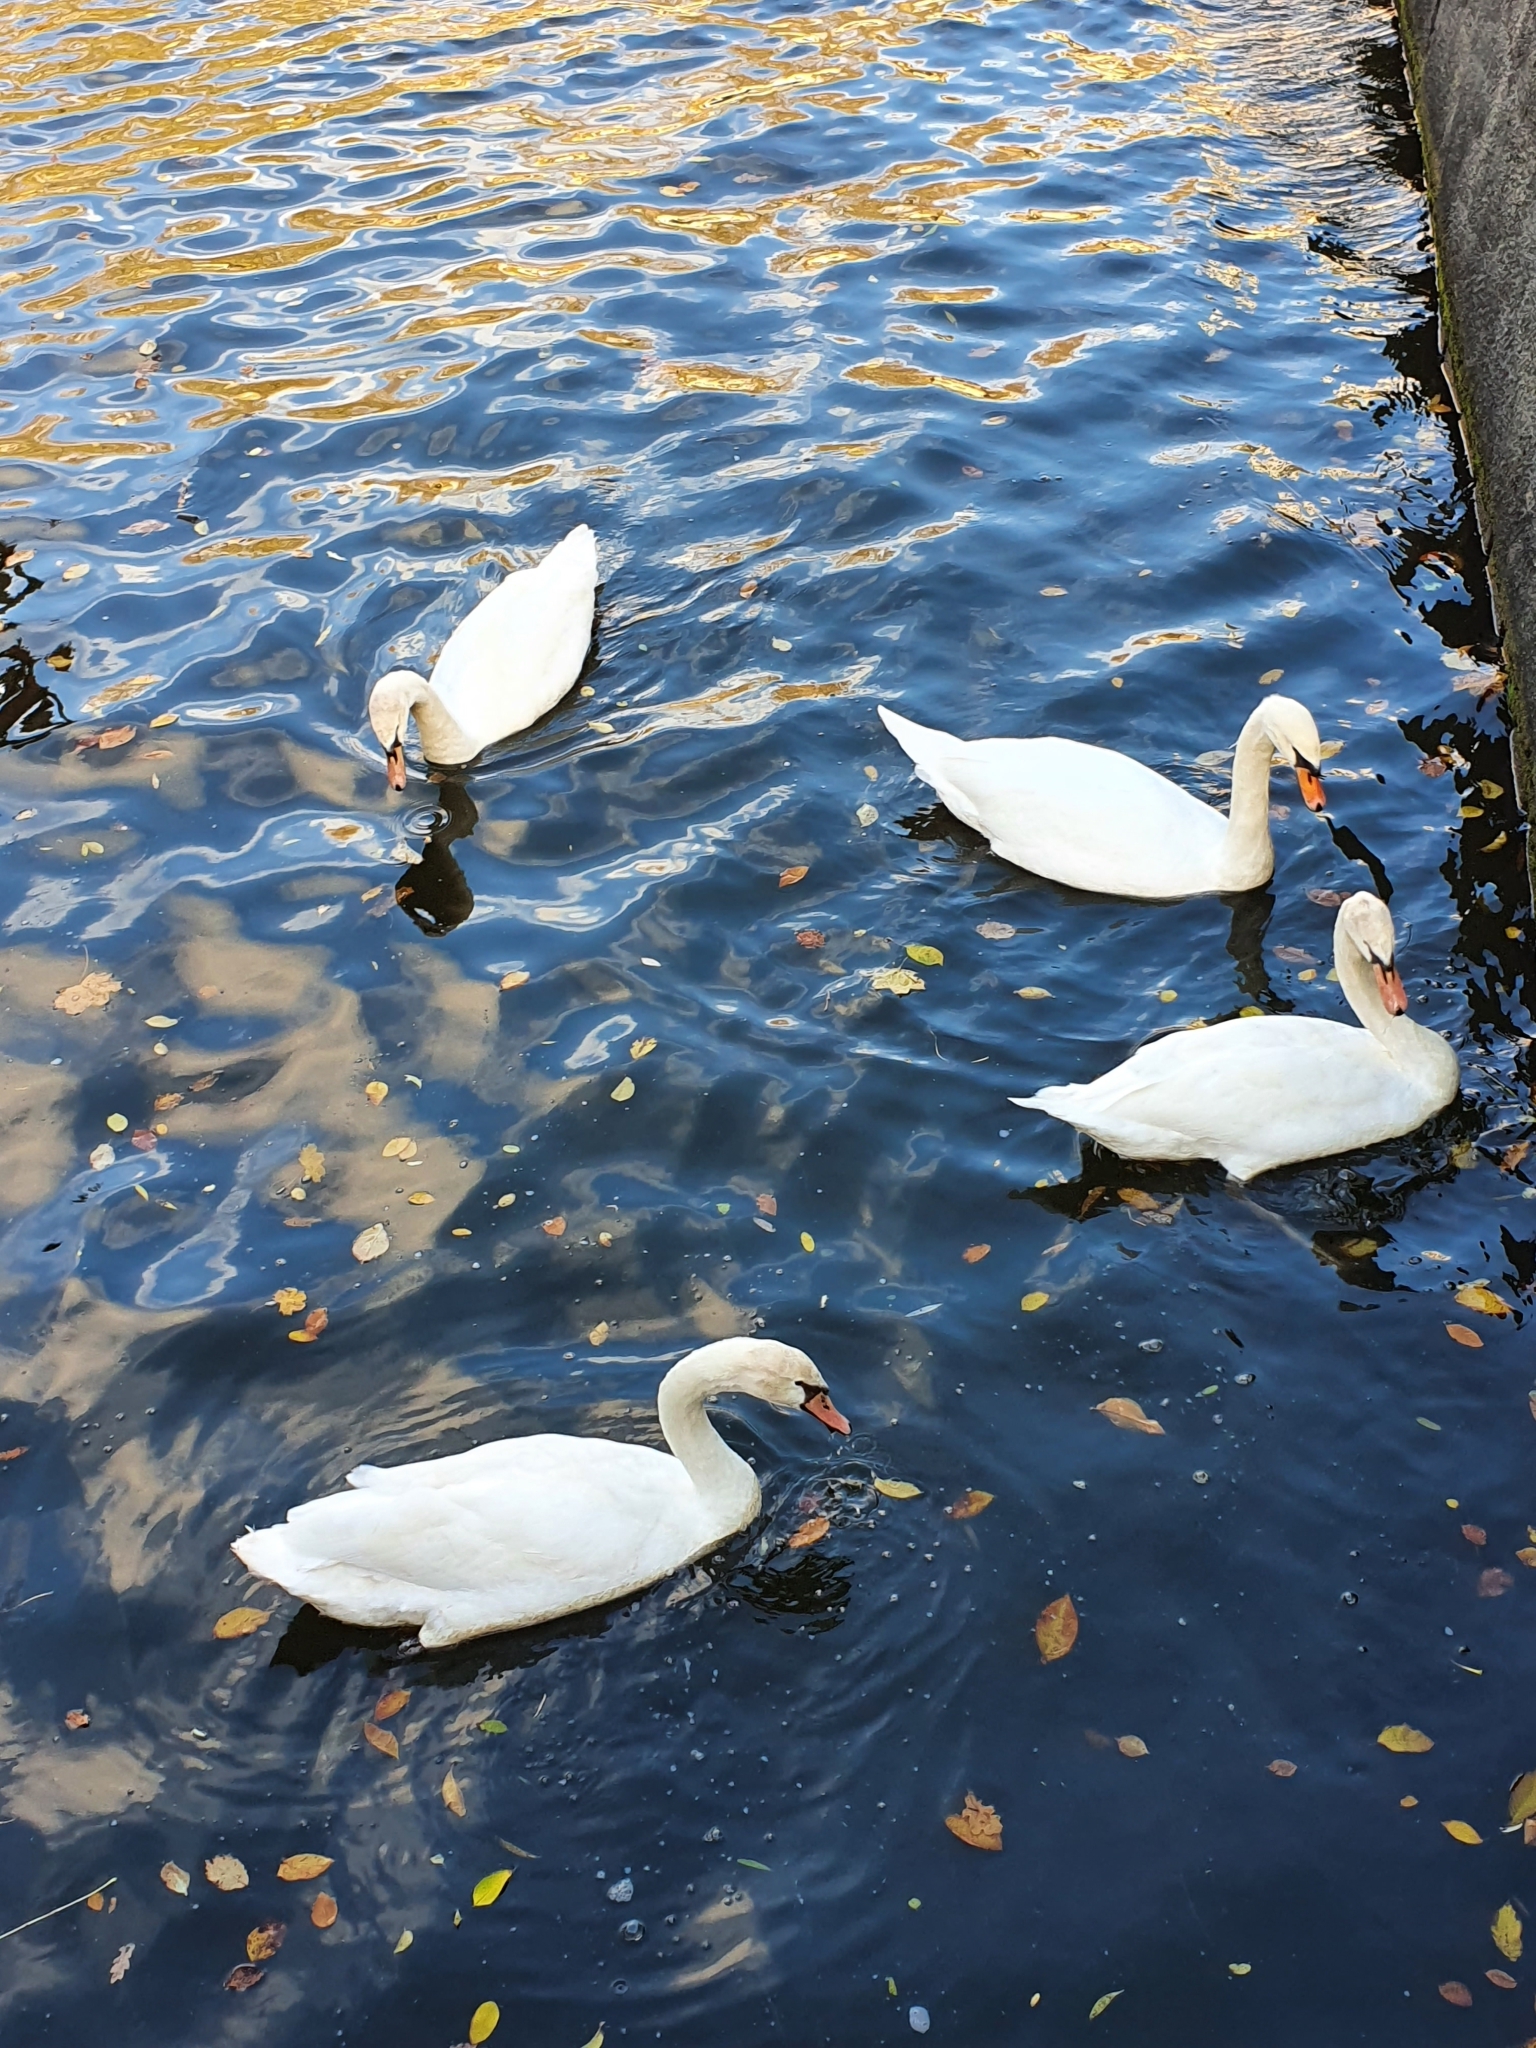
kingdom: Animalia
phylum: Chordata
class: Aves
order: Anseriformes
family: Anatidae
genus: Cygnus
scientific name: Cygnus olor
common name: Mute swan
